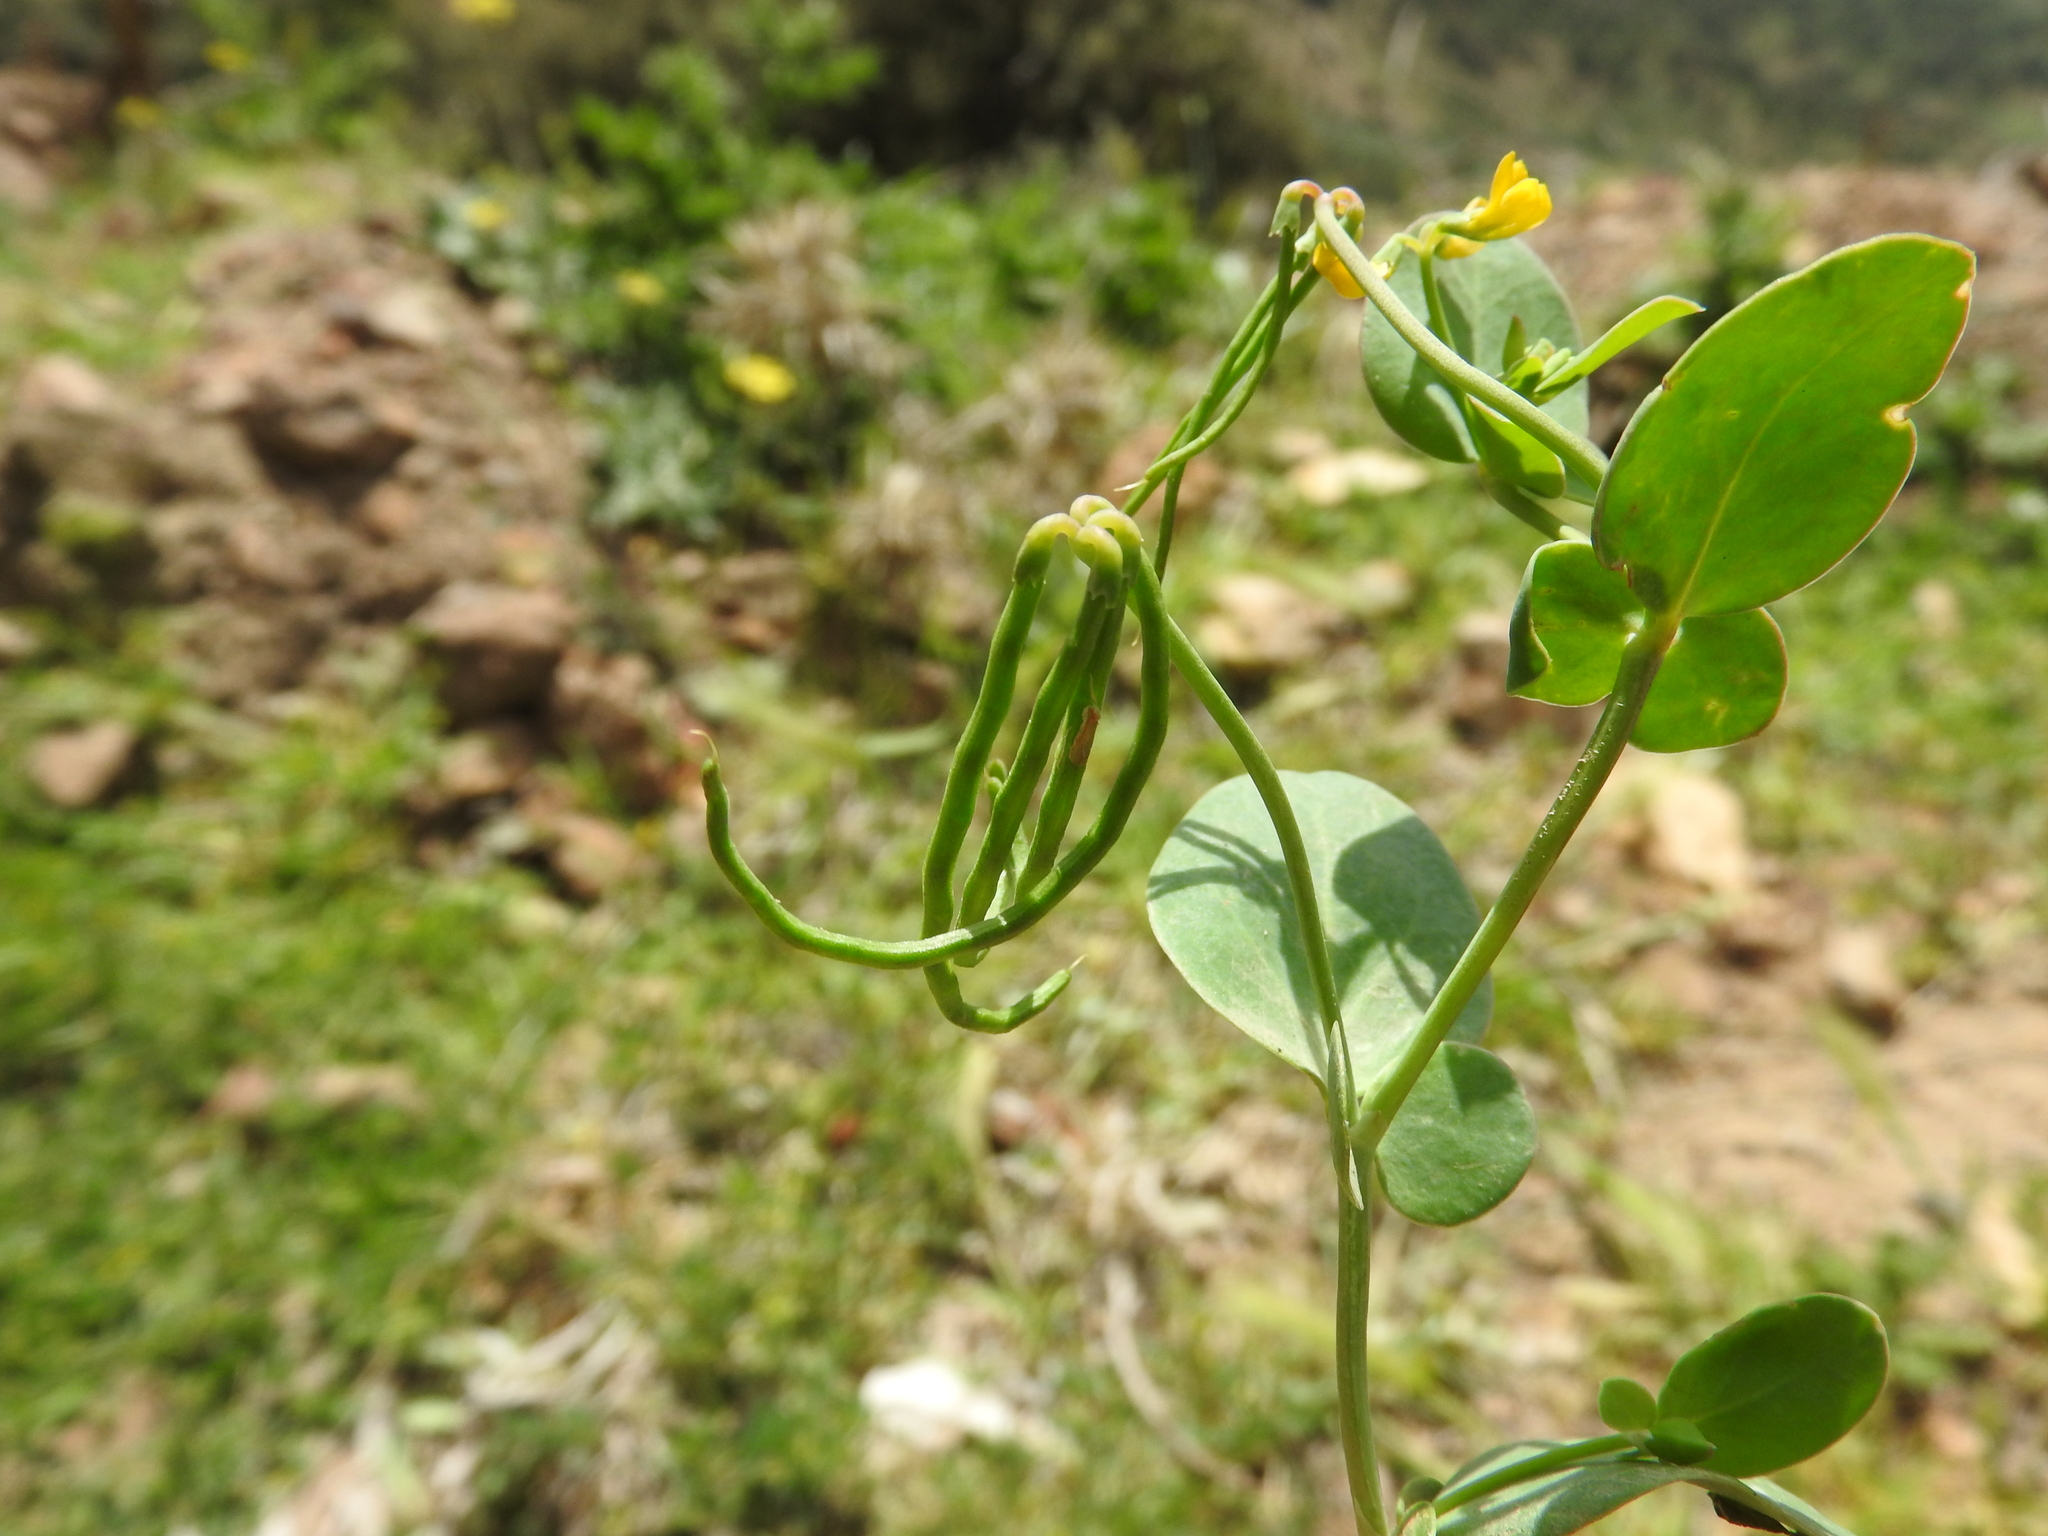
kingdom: Plantae
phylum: Tracheophyta
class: Magnoliopsida
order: Fabales
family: Fabaceae
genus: Coronilla
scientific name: Coronilla scorpioides
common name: Annual scorpion-vetch
